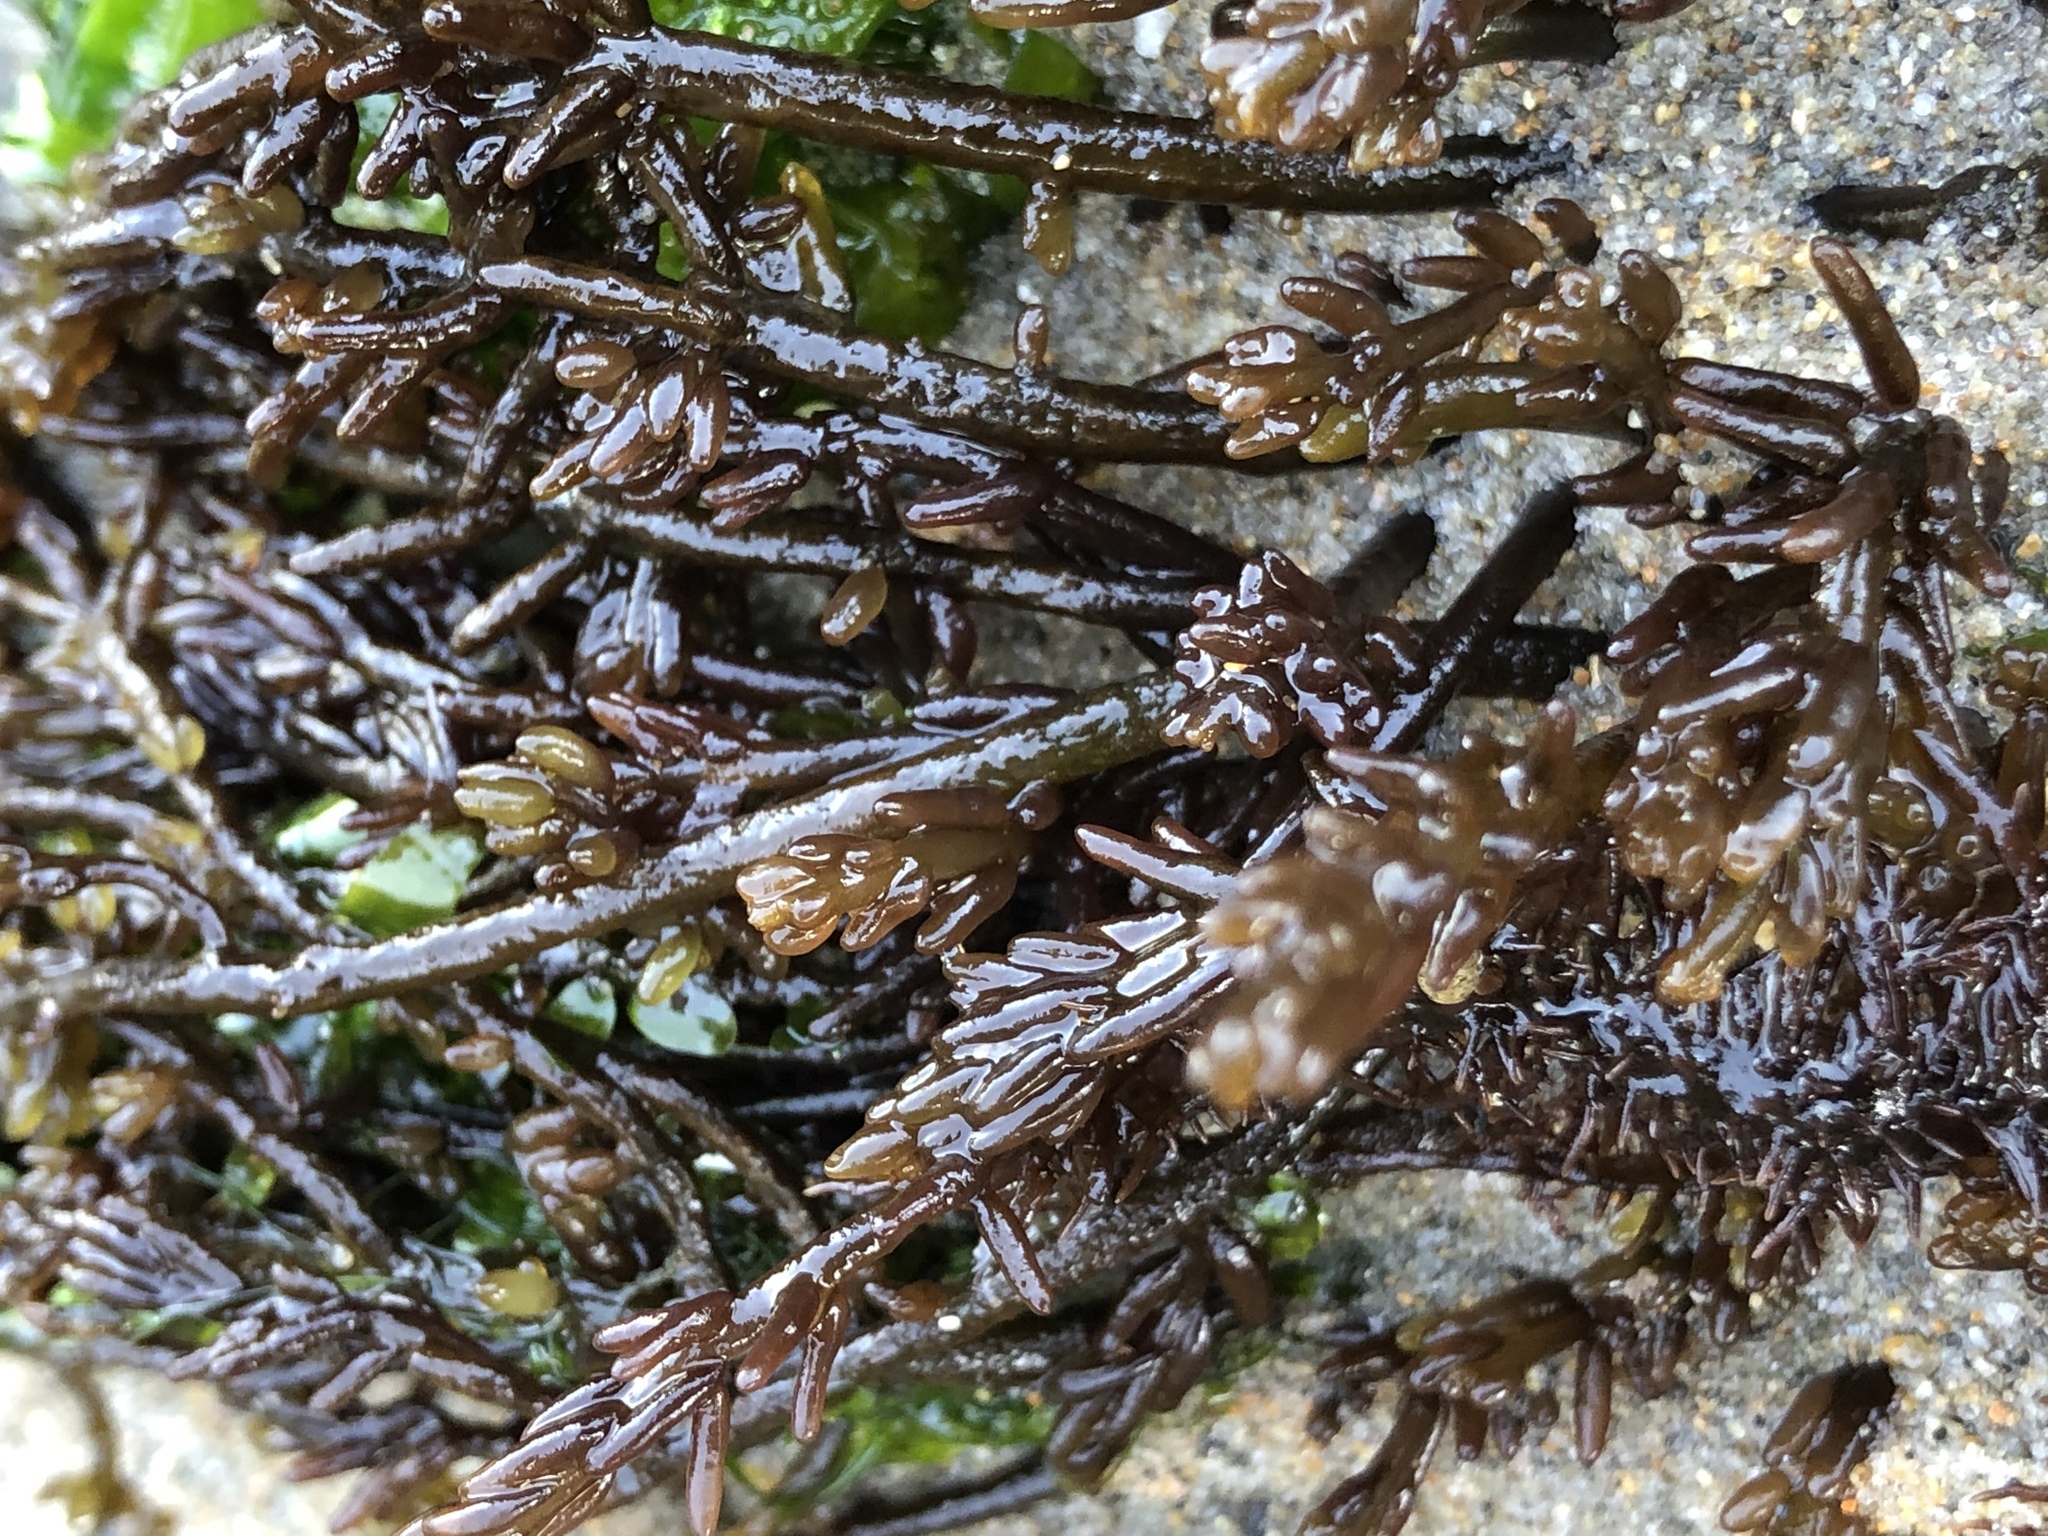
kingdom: Plantae
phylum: Rhodophyta
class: Florideophyceae
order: Rhodymeniales
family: Champiaceae
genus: Neogastroclonium
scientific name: Neogastroclonium subarticulatum
